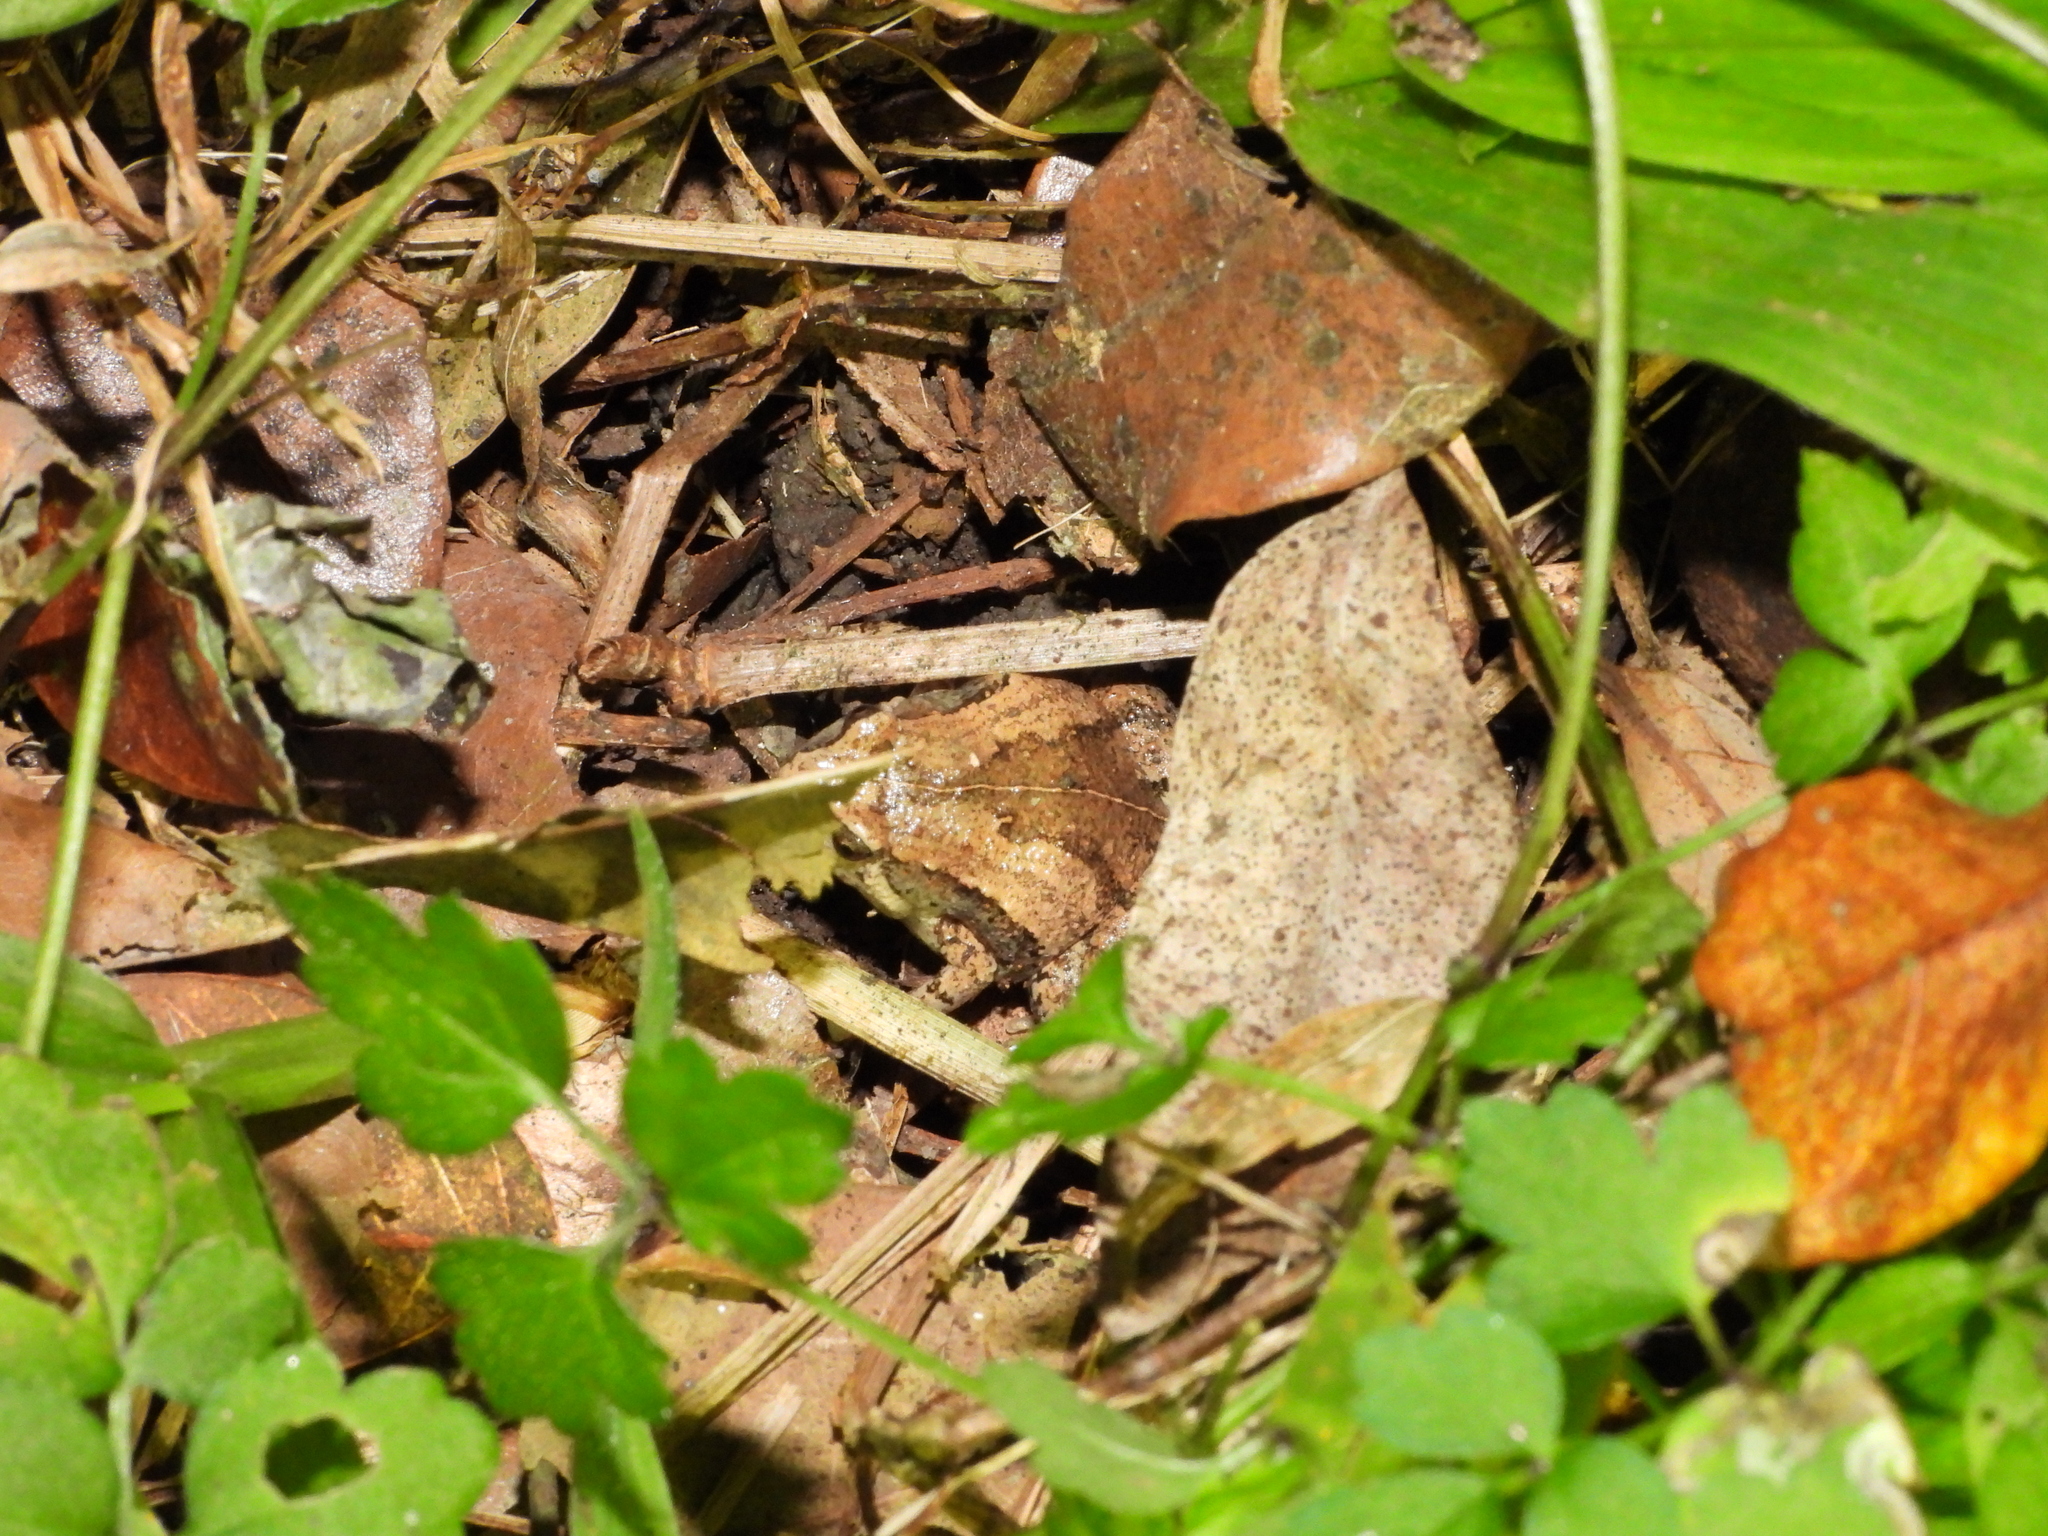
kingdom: Animalia
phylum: Chordata
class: Amphibia
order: Anura
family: Microhylidae
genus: Microhyla
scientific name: Microhyla fissipes
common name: Ornate narrow-mouthed frog
